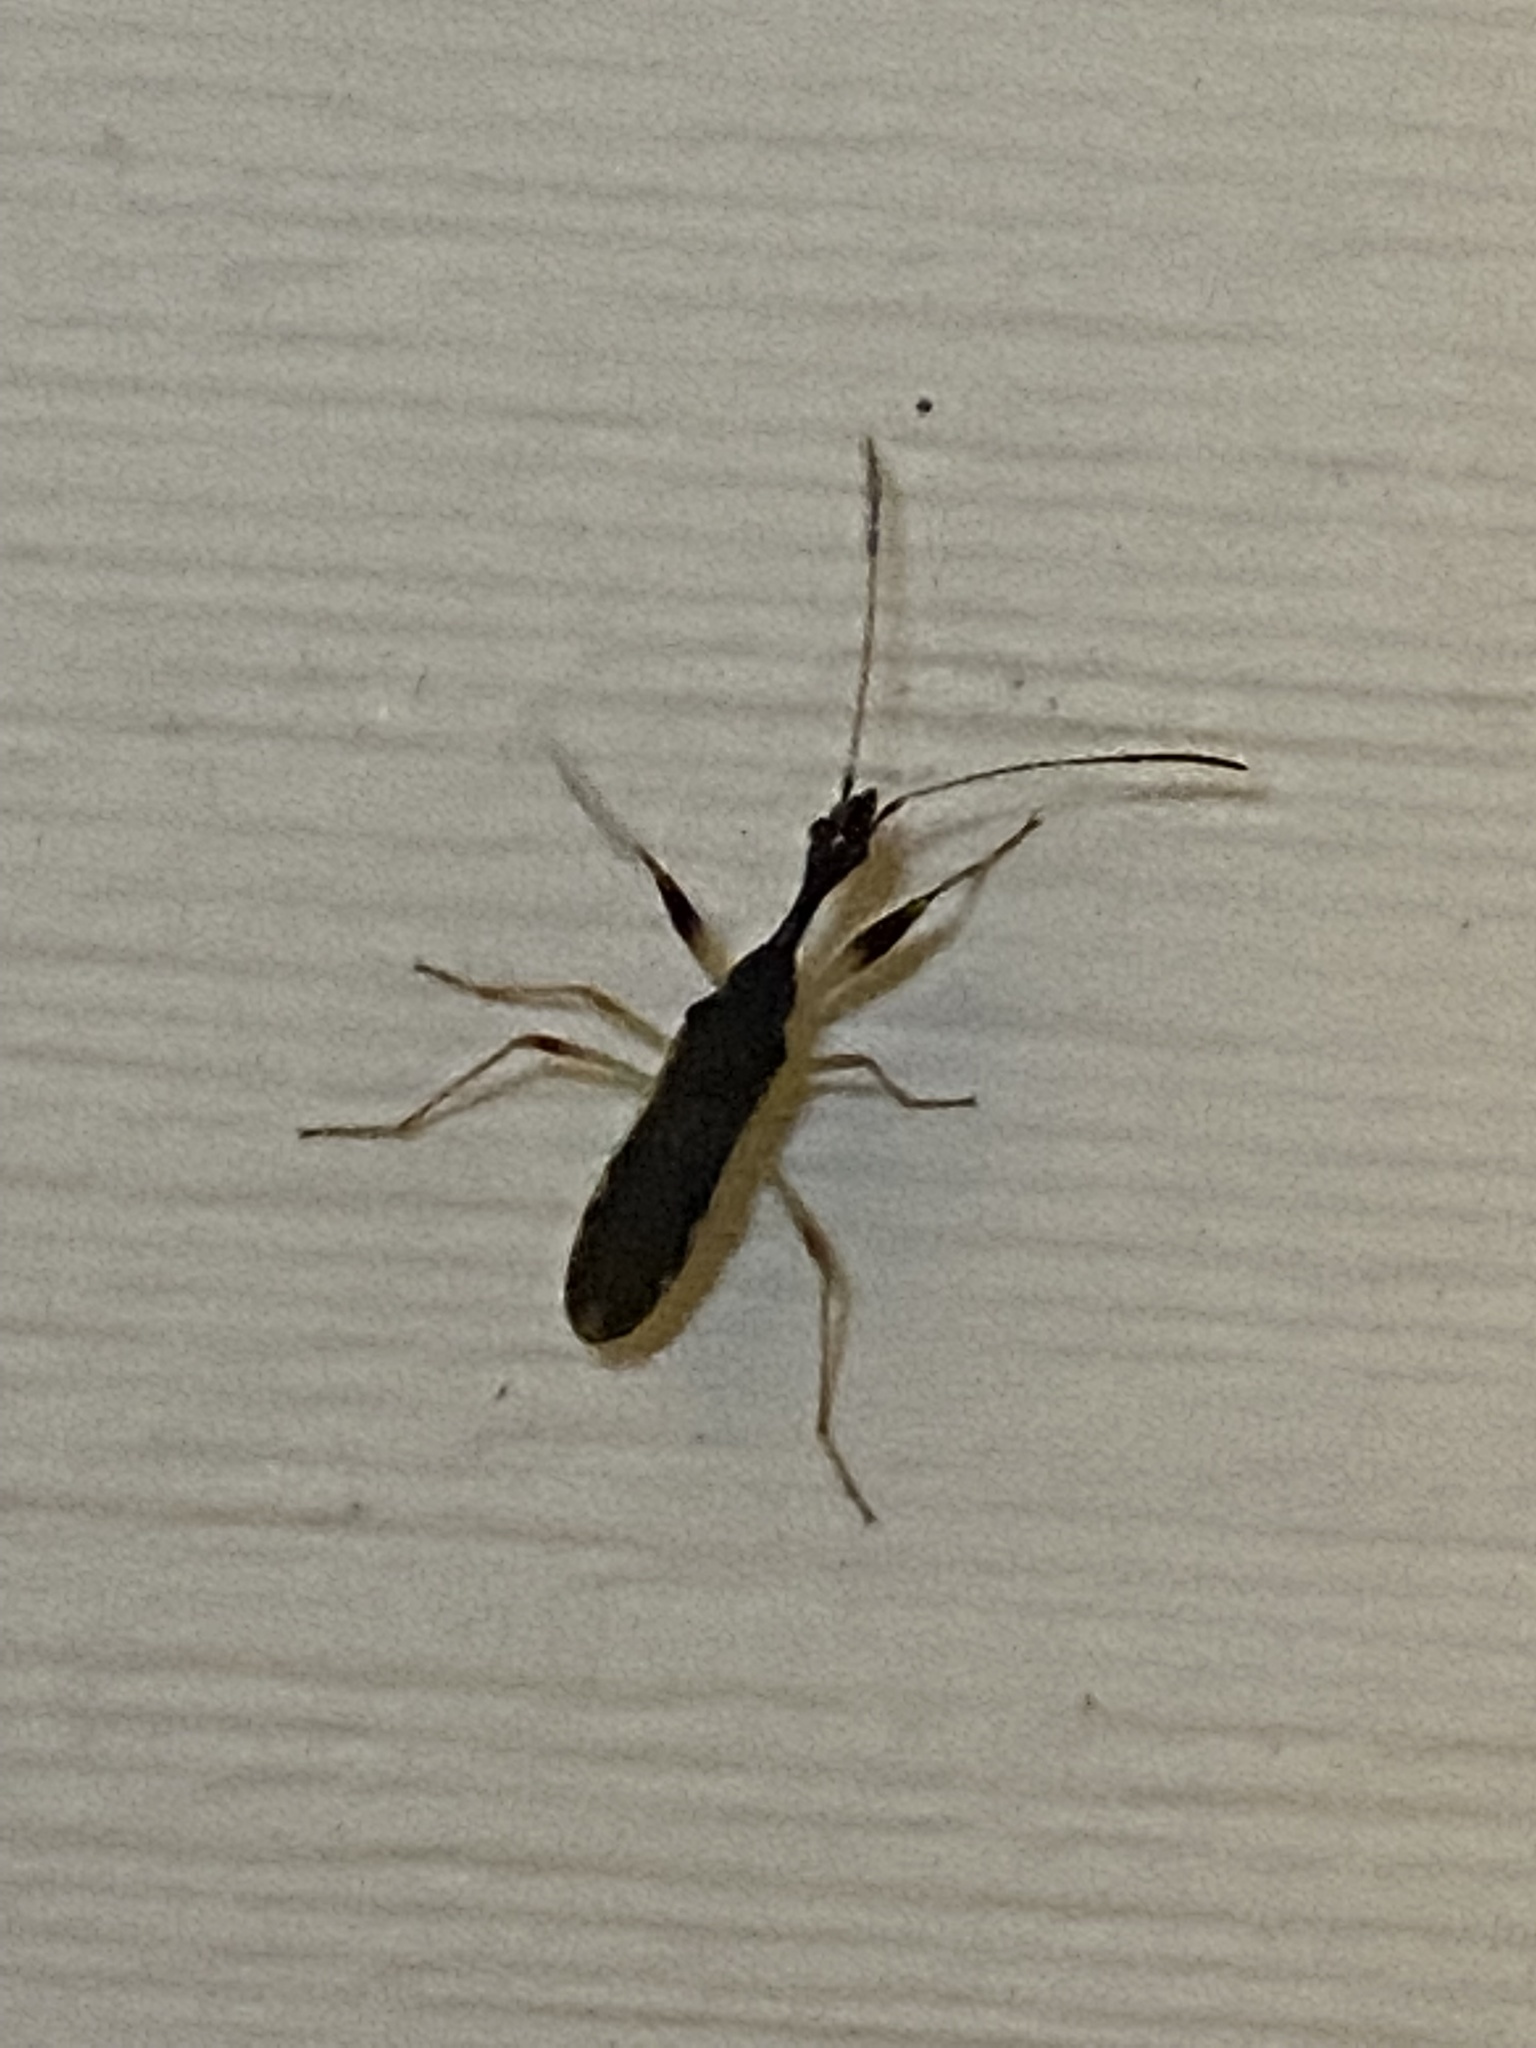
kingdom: Animalia
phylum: Arthropoda
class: Insecta
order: Hemiptera
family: Rhyparochromidae
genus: Myodocha
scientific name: Myodocha serripes
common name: Long-necked seed bug
